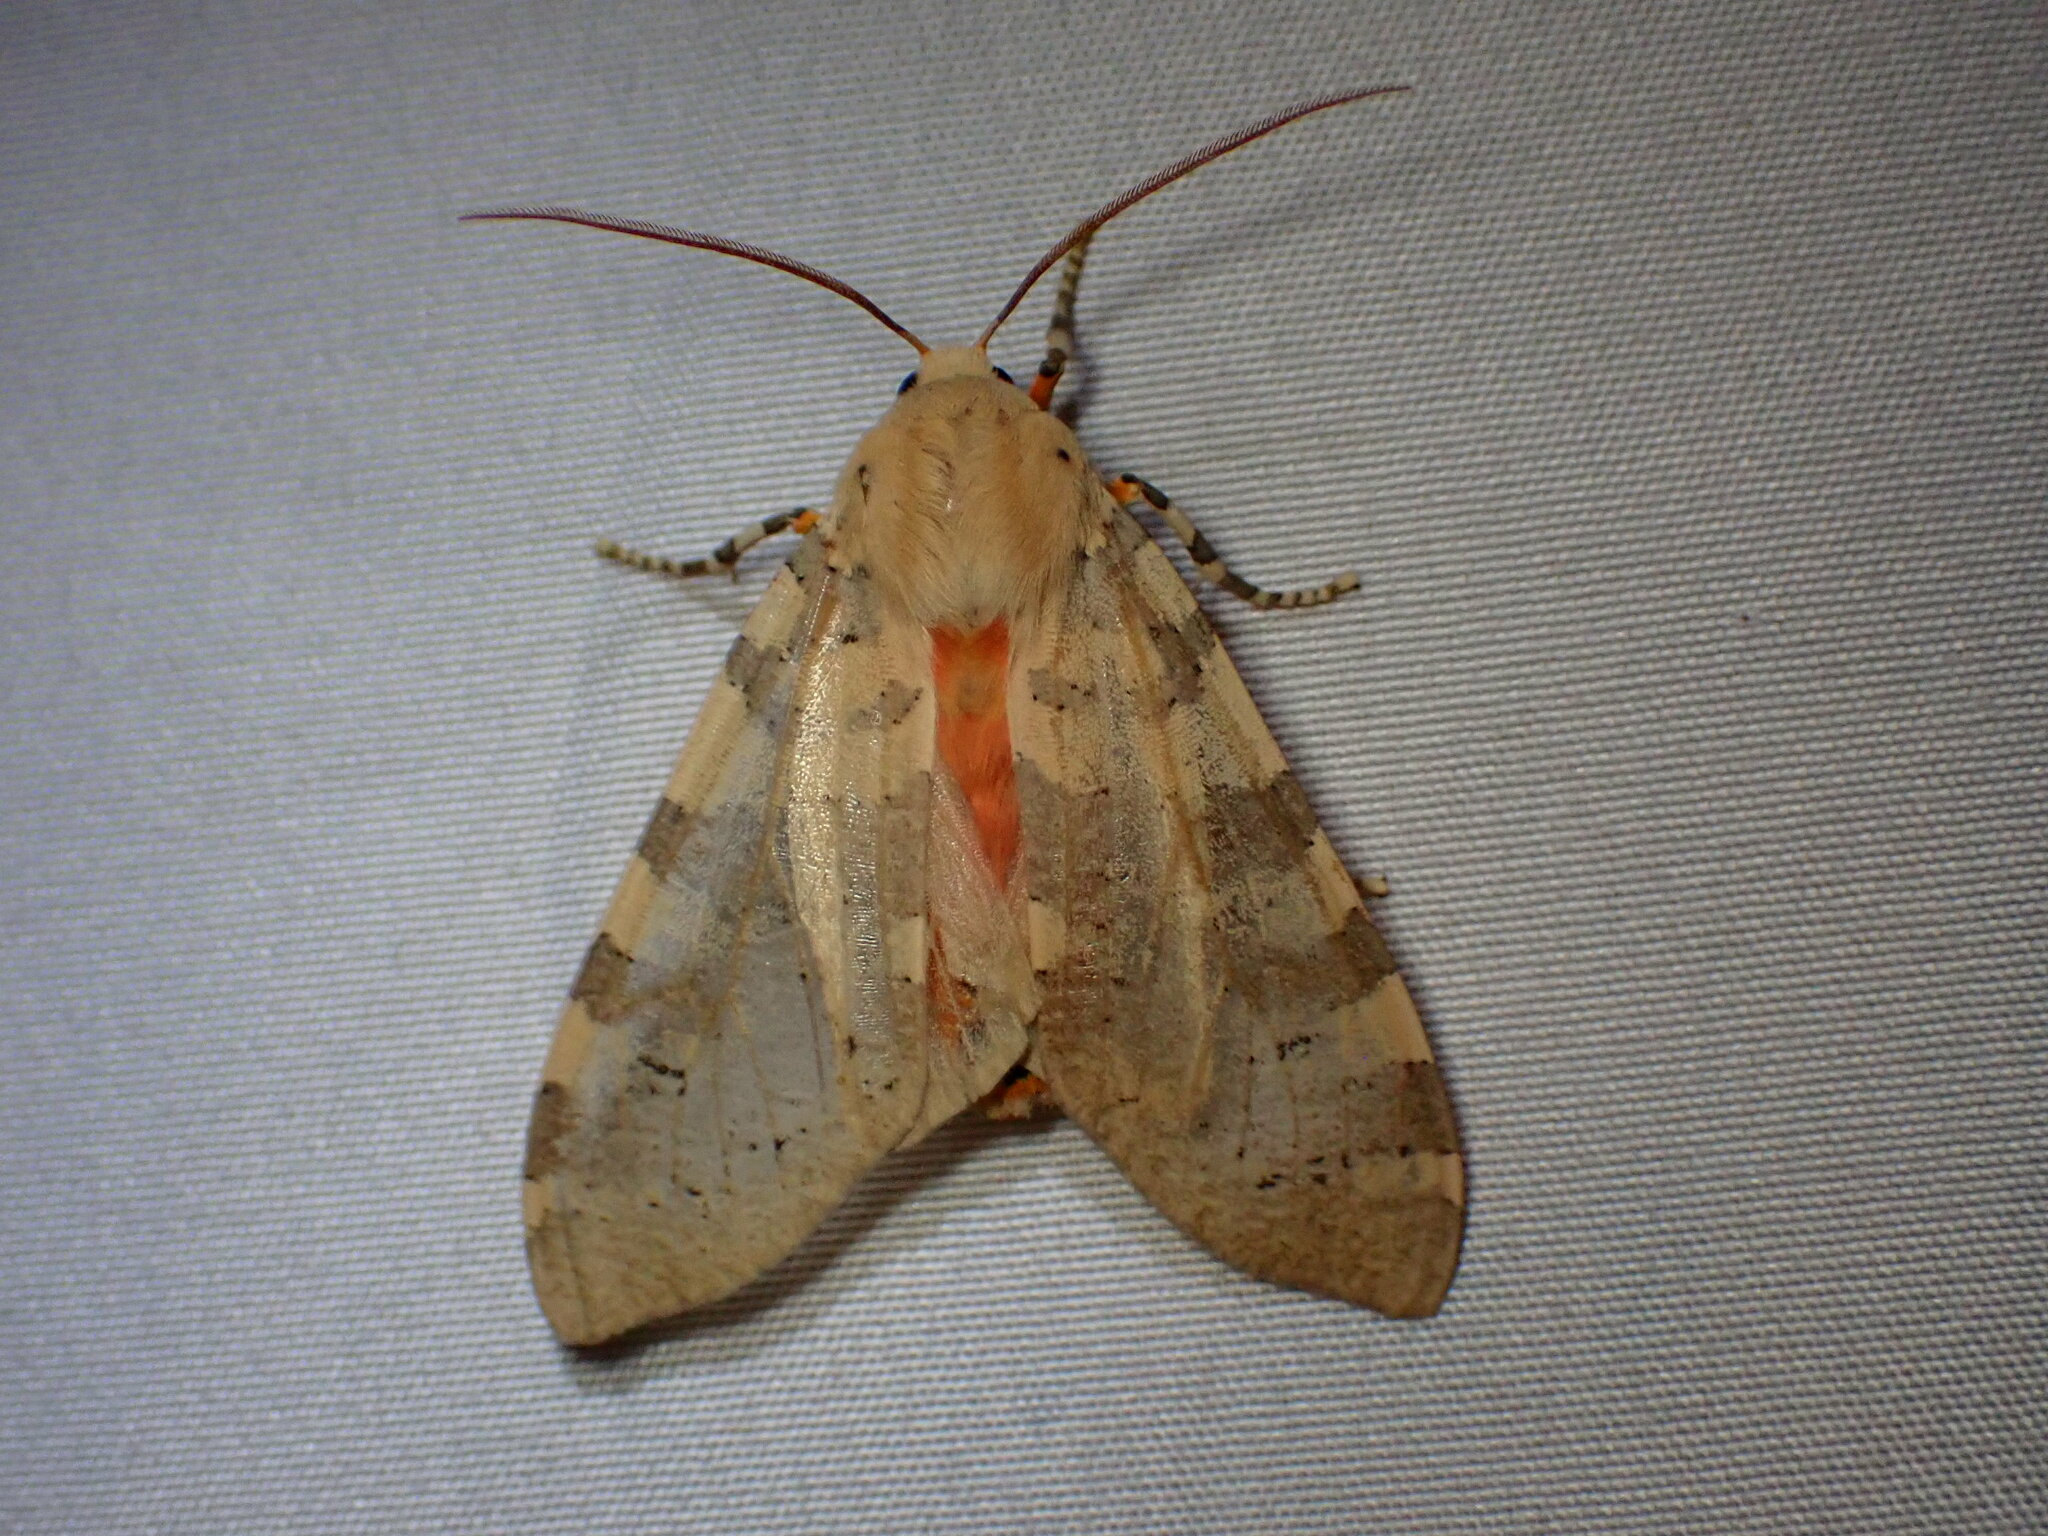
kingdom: Animalia
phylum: Arthropoda
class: Insecta
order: Lepidoptera
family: Erebidae
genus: Hemihyalea
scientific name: Hemihyalea edwardsii
